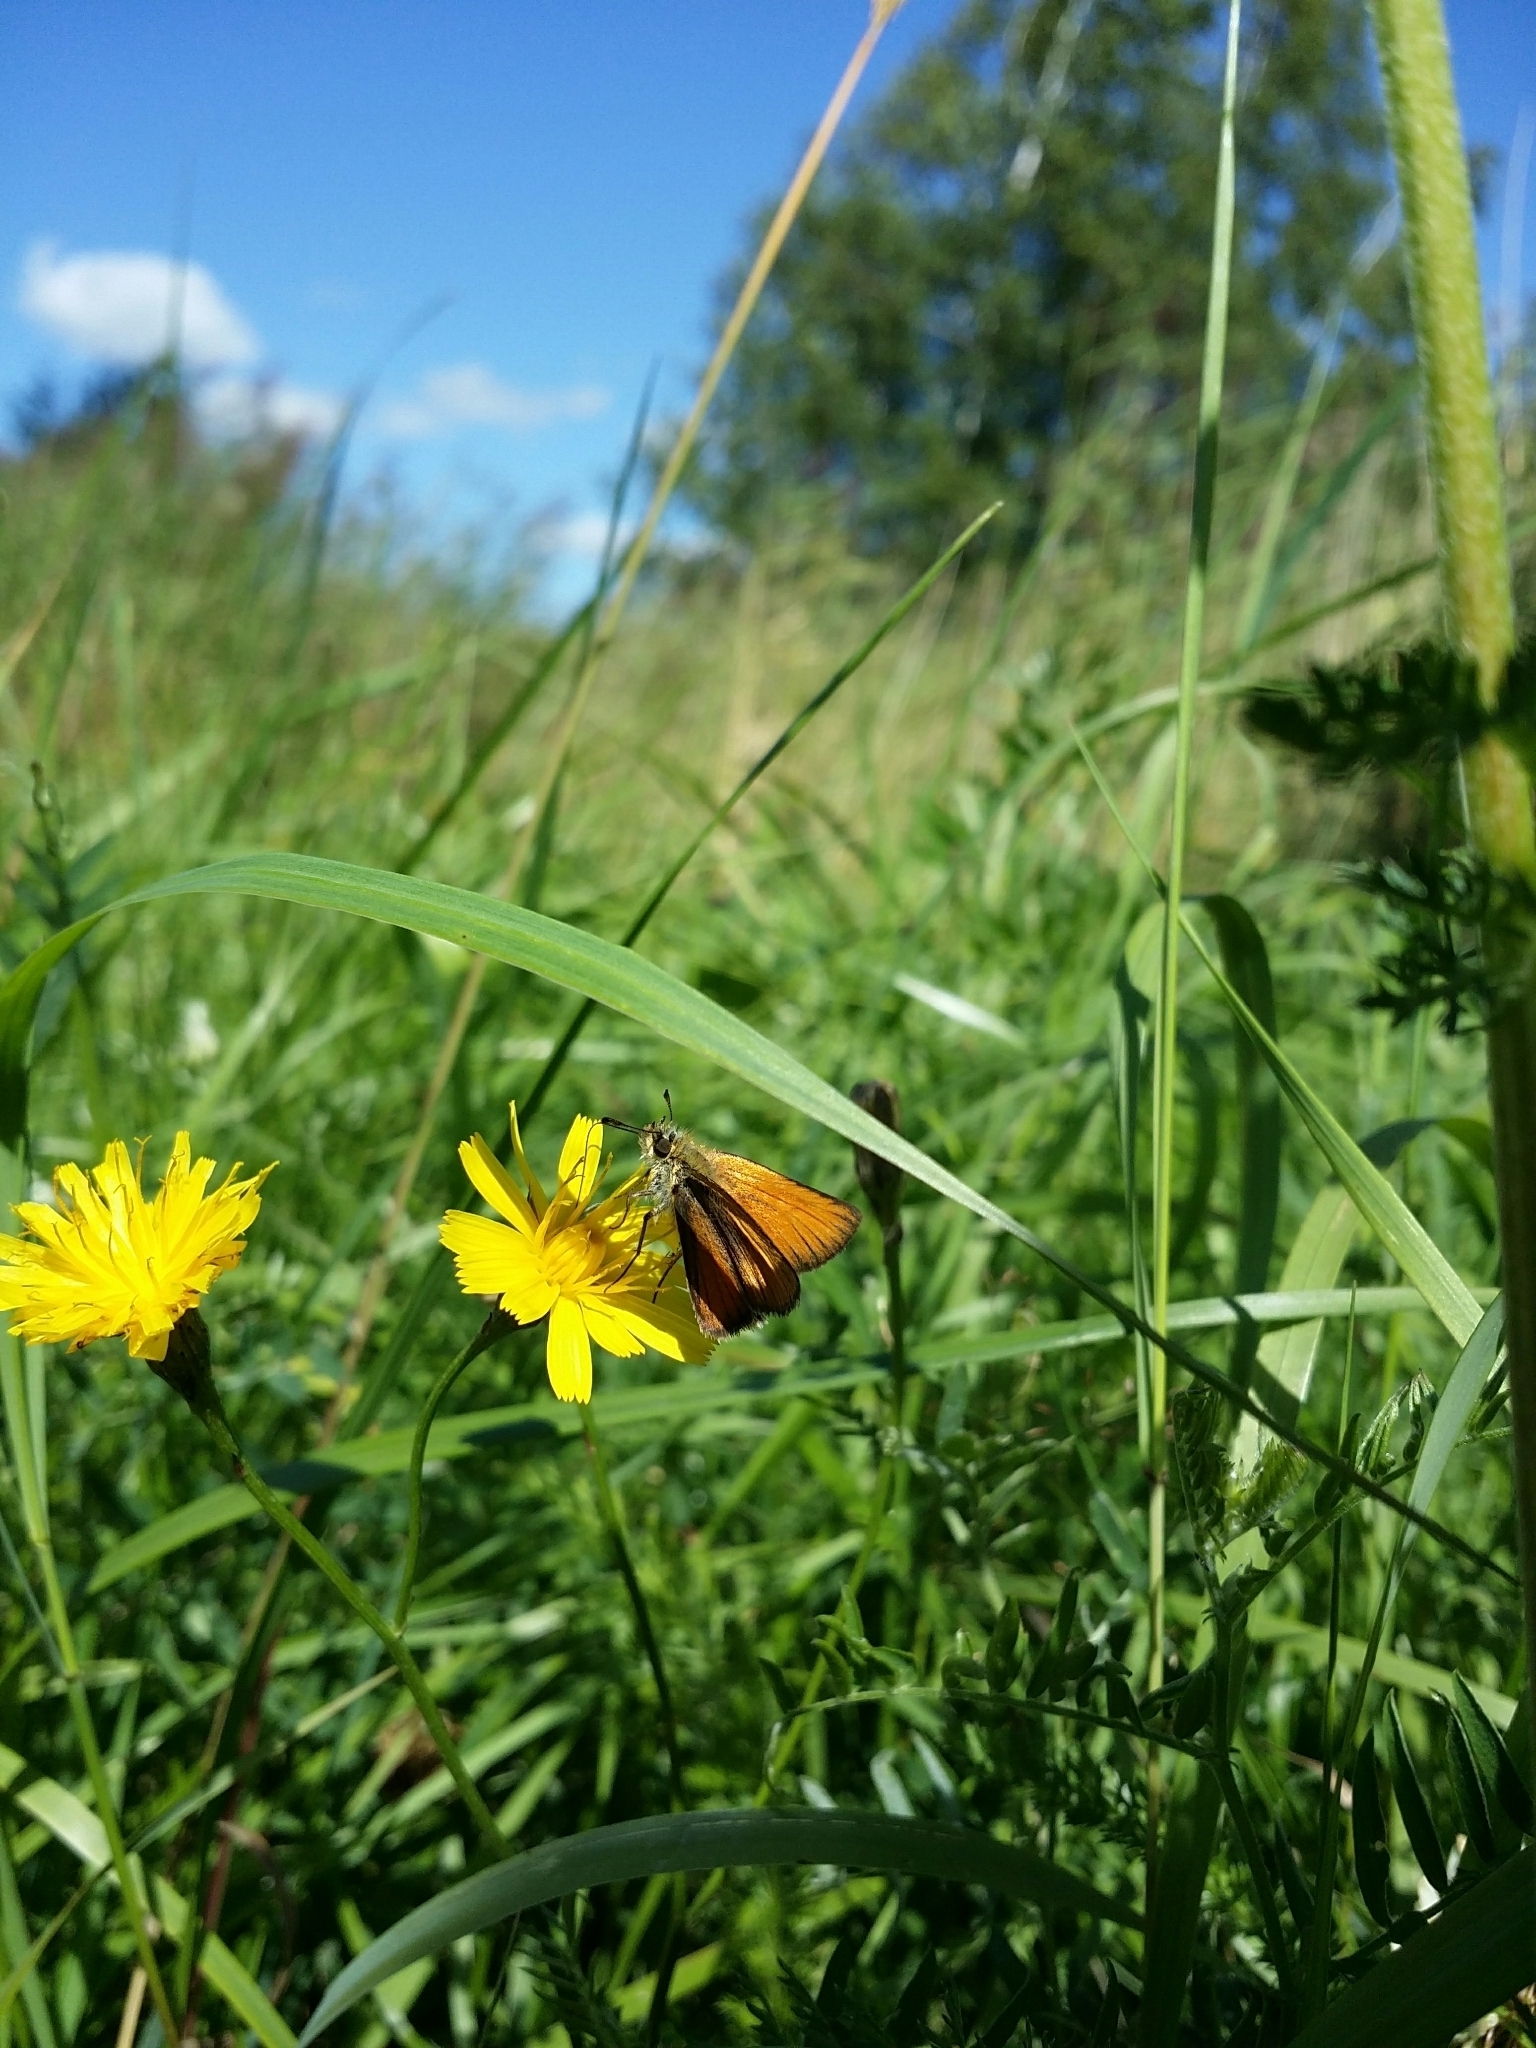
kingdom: Animalia
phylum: Arthropoda
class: Insecta
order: Lepidoptera
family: Hesperiidae
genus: Thymelicus
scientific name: Thymelicus lineola
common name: Essex skipper
